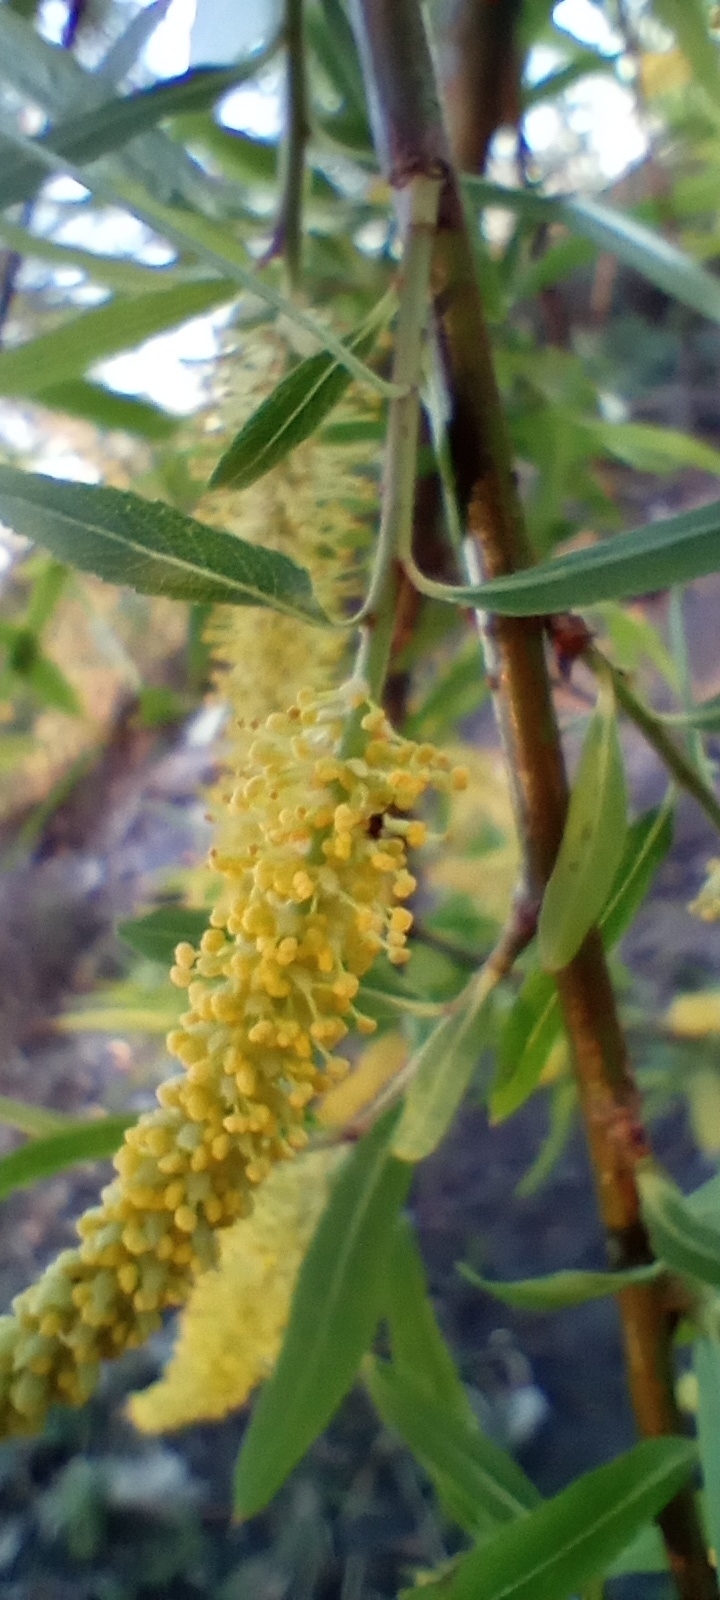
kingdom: Plantae
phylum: Tracheophyta
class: Magnoliopsida
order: Malpighiales
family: Salicaceae
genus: Salix
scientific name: Salix humboldtiana
